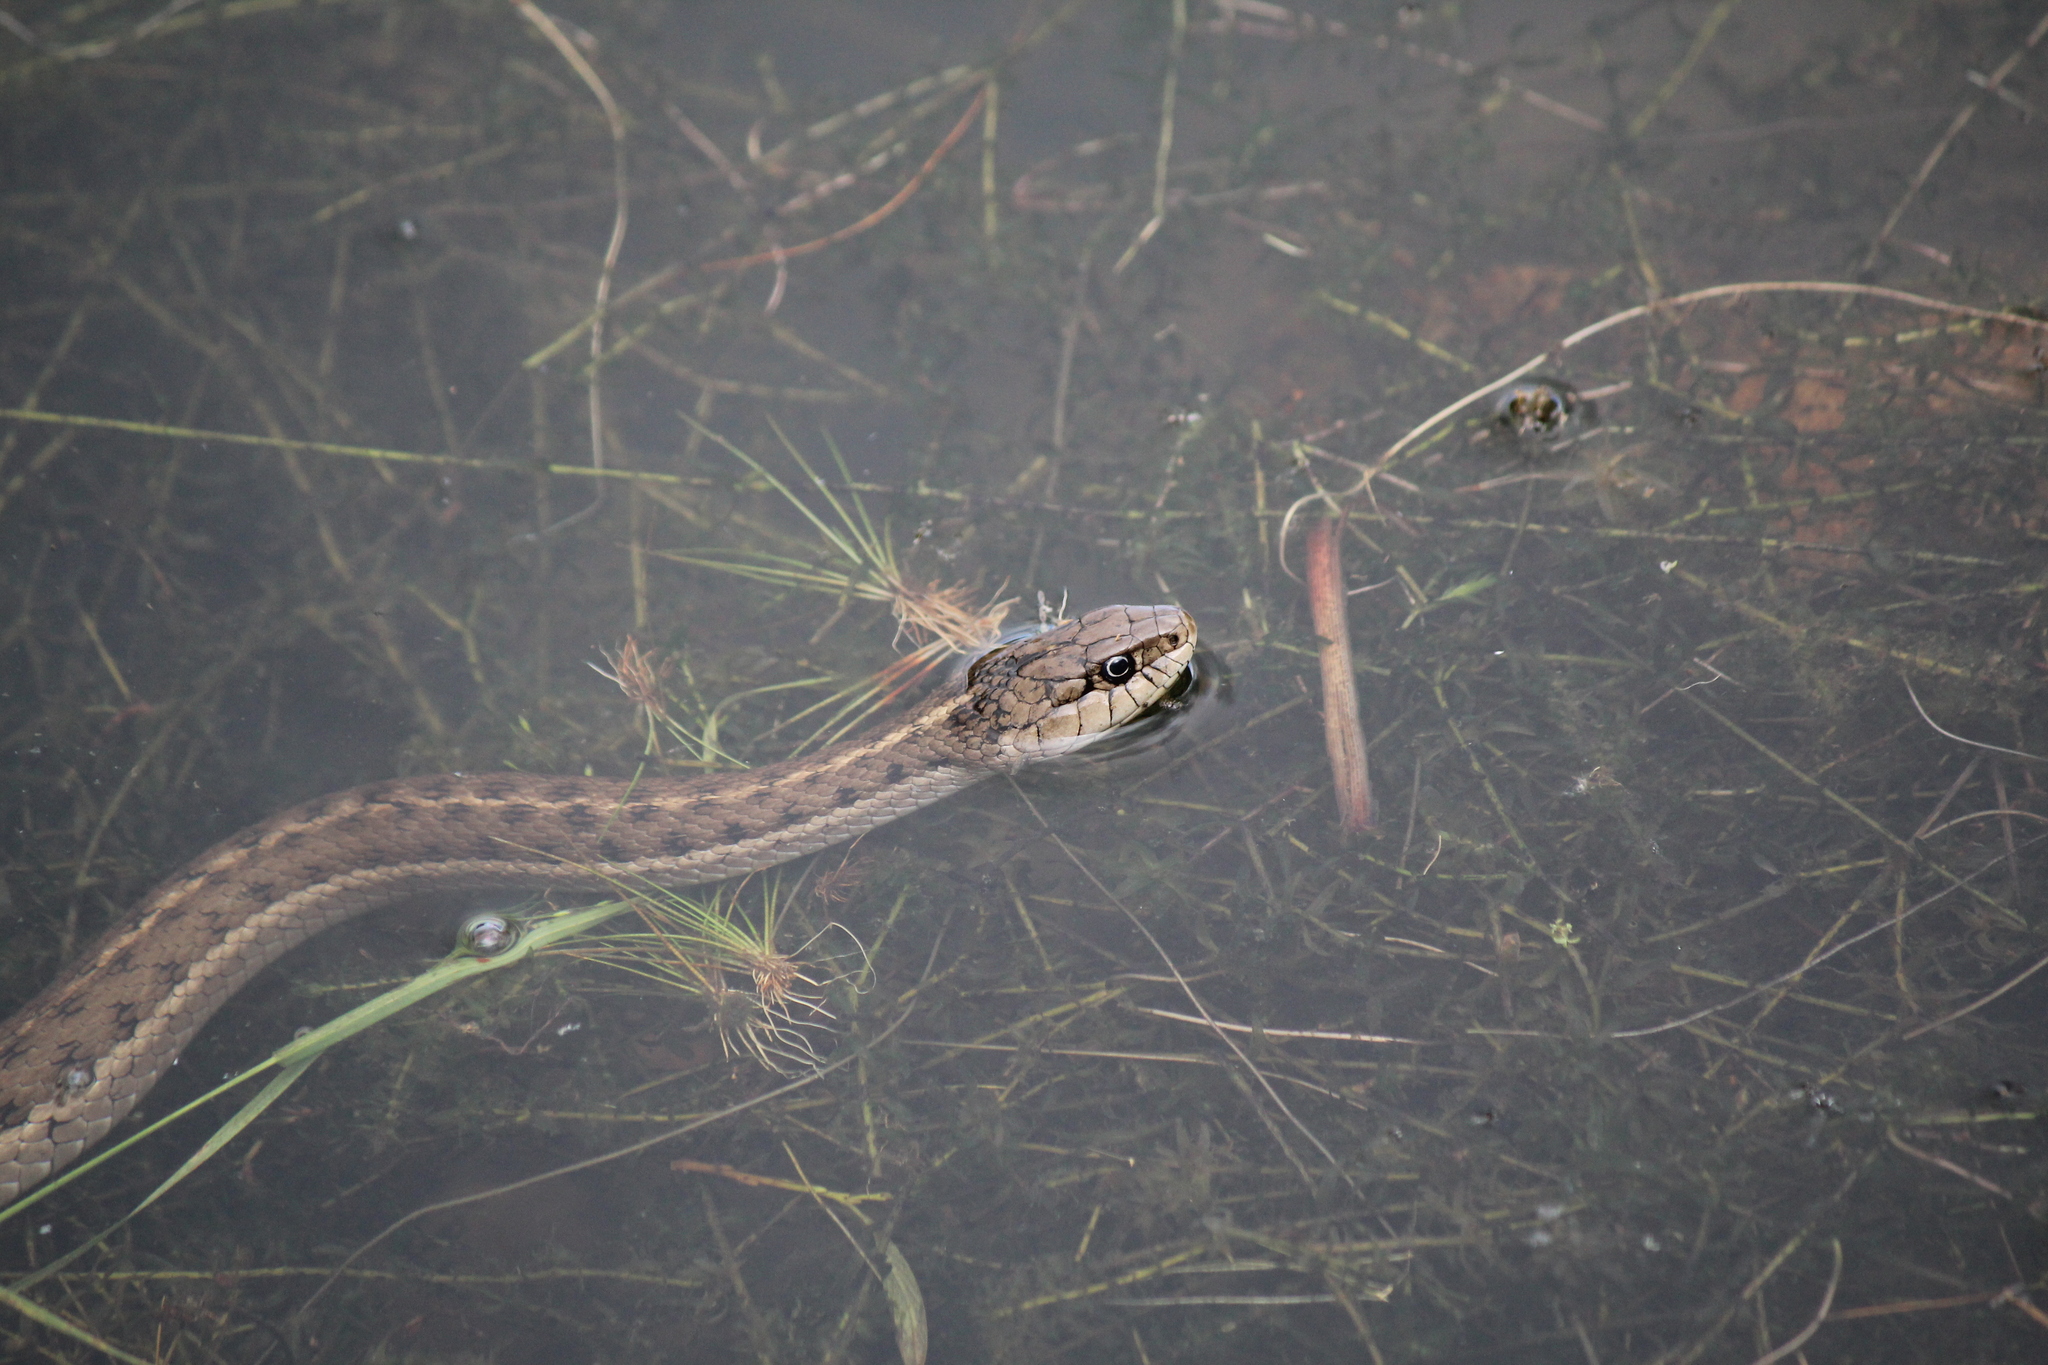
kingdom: Animalia
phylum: Chordata
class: Squamata
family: Colubridae
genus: Thamnophis
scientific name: Thamnophis elegans
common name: Western terrestrial garter snake
